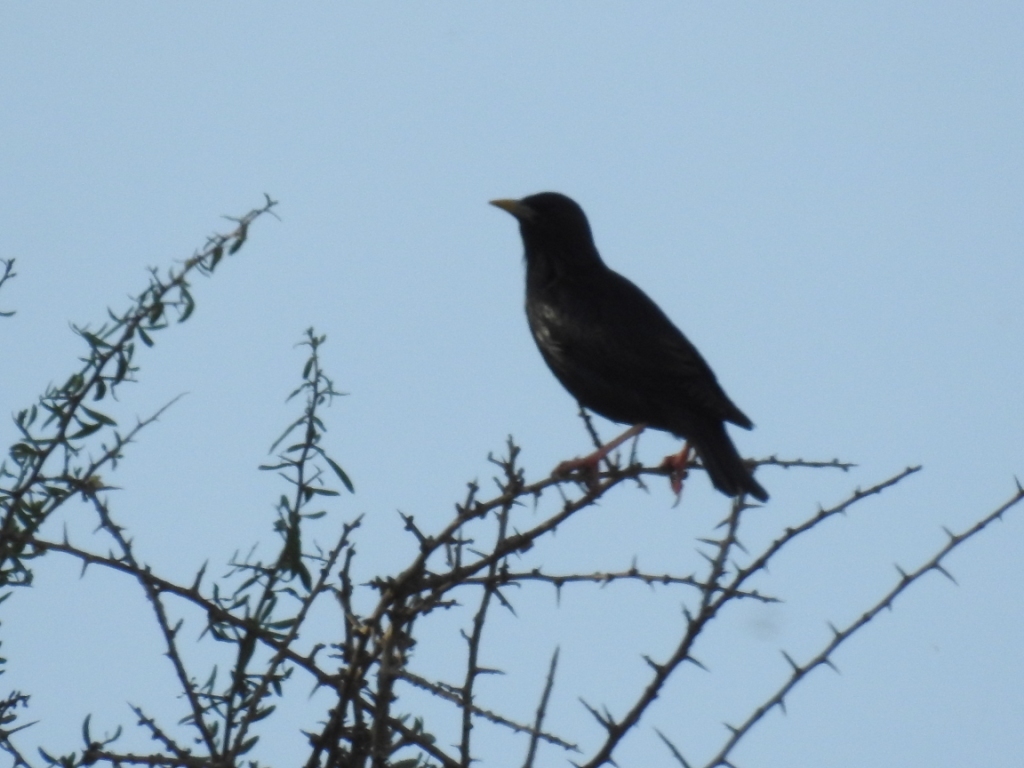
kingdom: Animalia
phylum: Chordata
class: Aves
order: Passeriformes
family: Sturnidae
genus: Sturnus
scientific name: Sturnus unicolor
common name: Spotless starling
